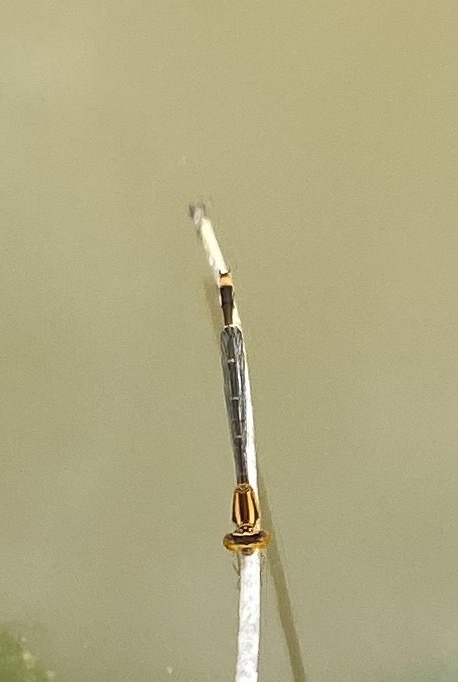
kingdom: Animalia
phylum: Arthropoda
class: Insecta
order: Odonata
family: Coenagrionidae
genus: Enallagma
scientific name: Enallagma signatum
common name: Orange bluet
